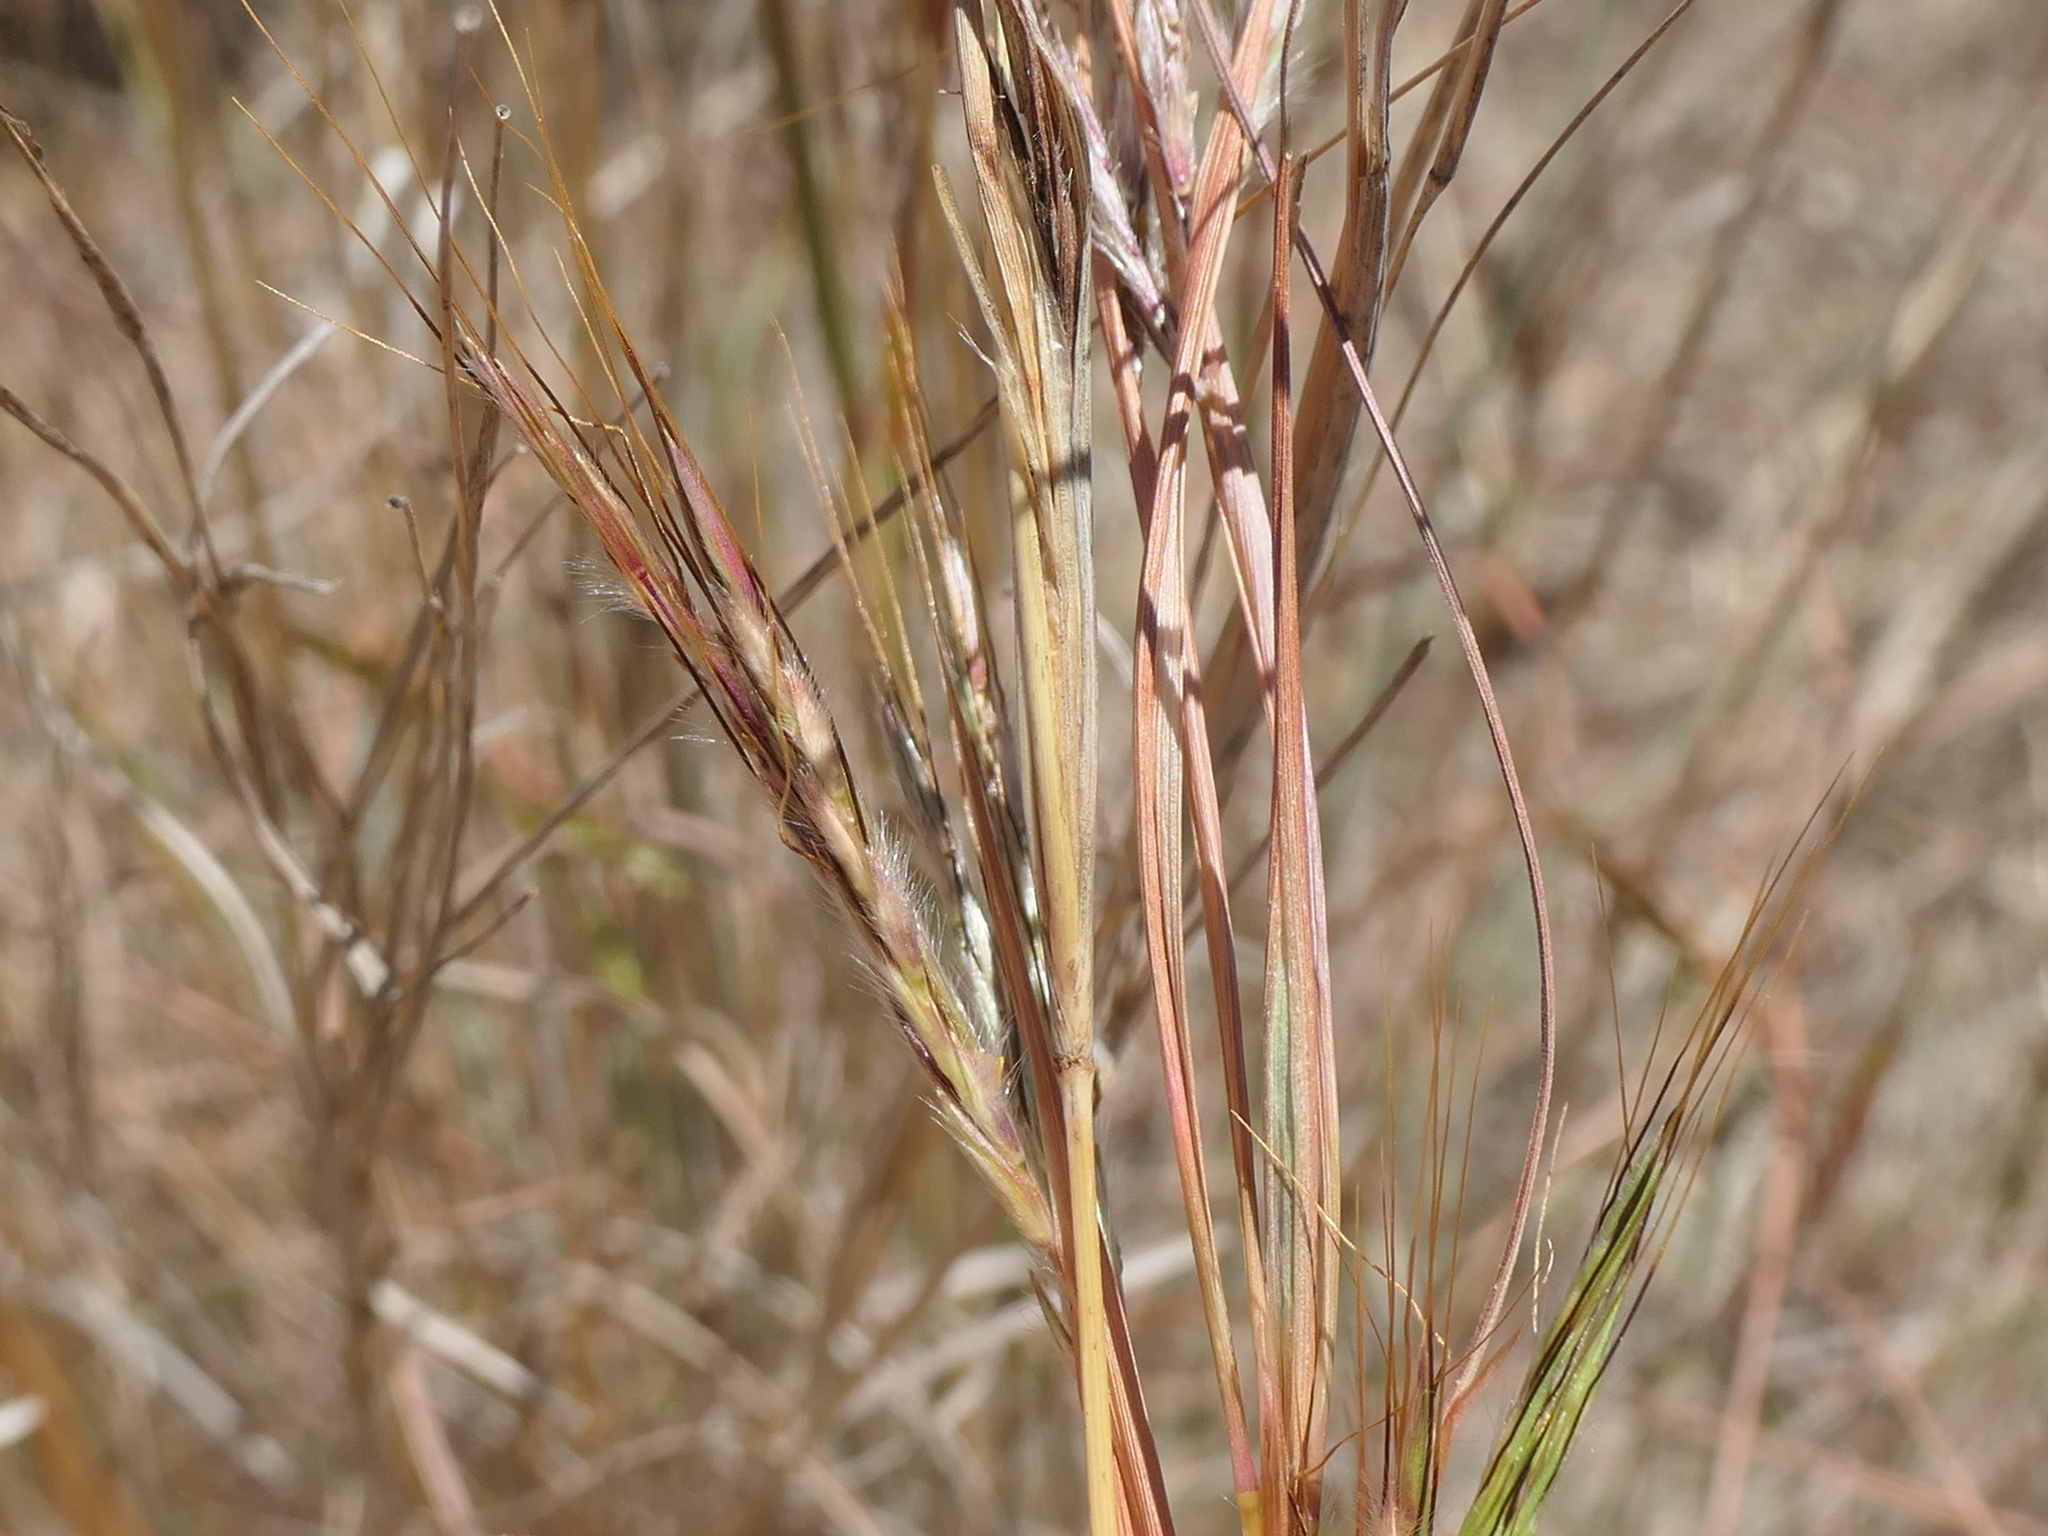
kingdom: Plantae
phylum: Tracheophyta
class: Liliopsida
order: Poales
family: Poaceae
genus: Hyparrhenia
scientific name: Hyparrhenia hirta
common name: Thatching grass
